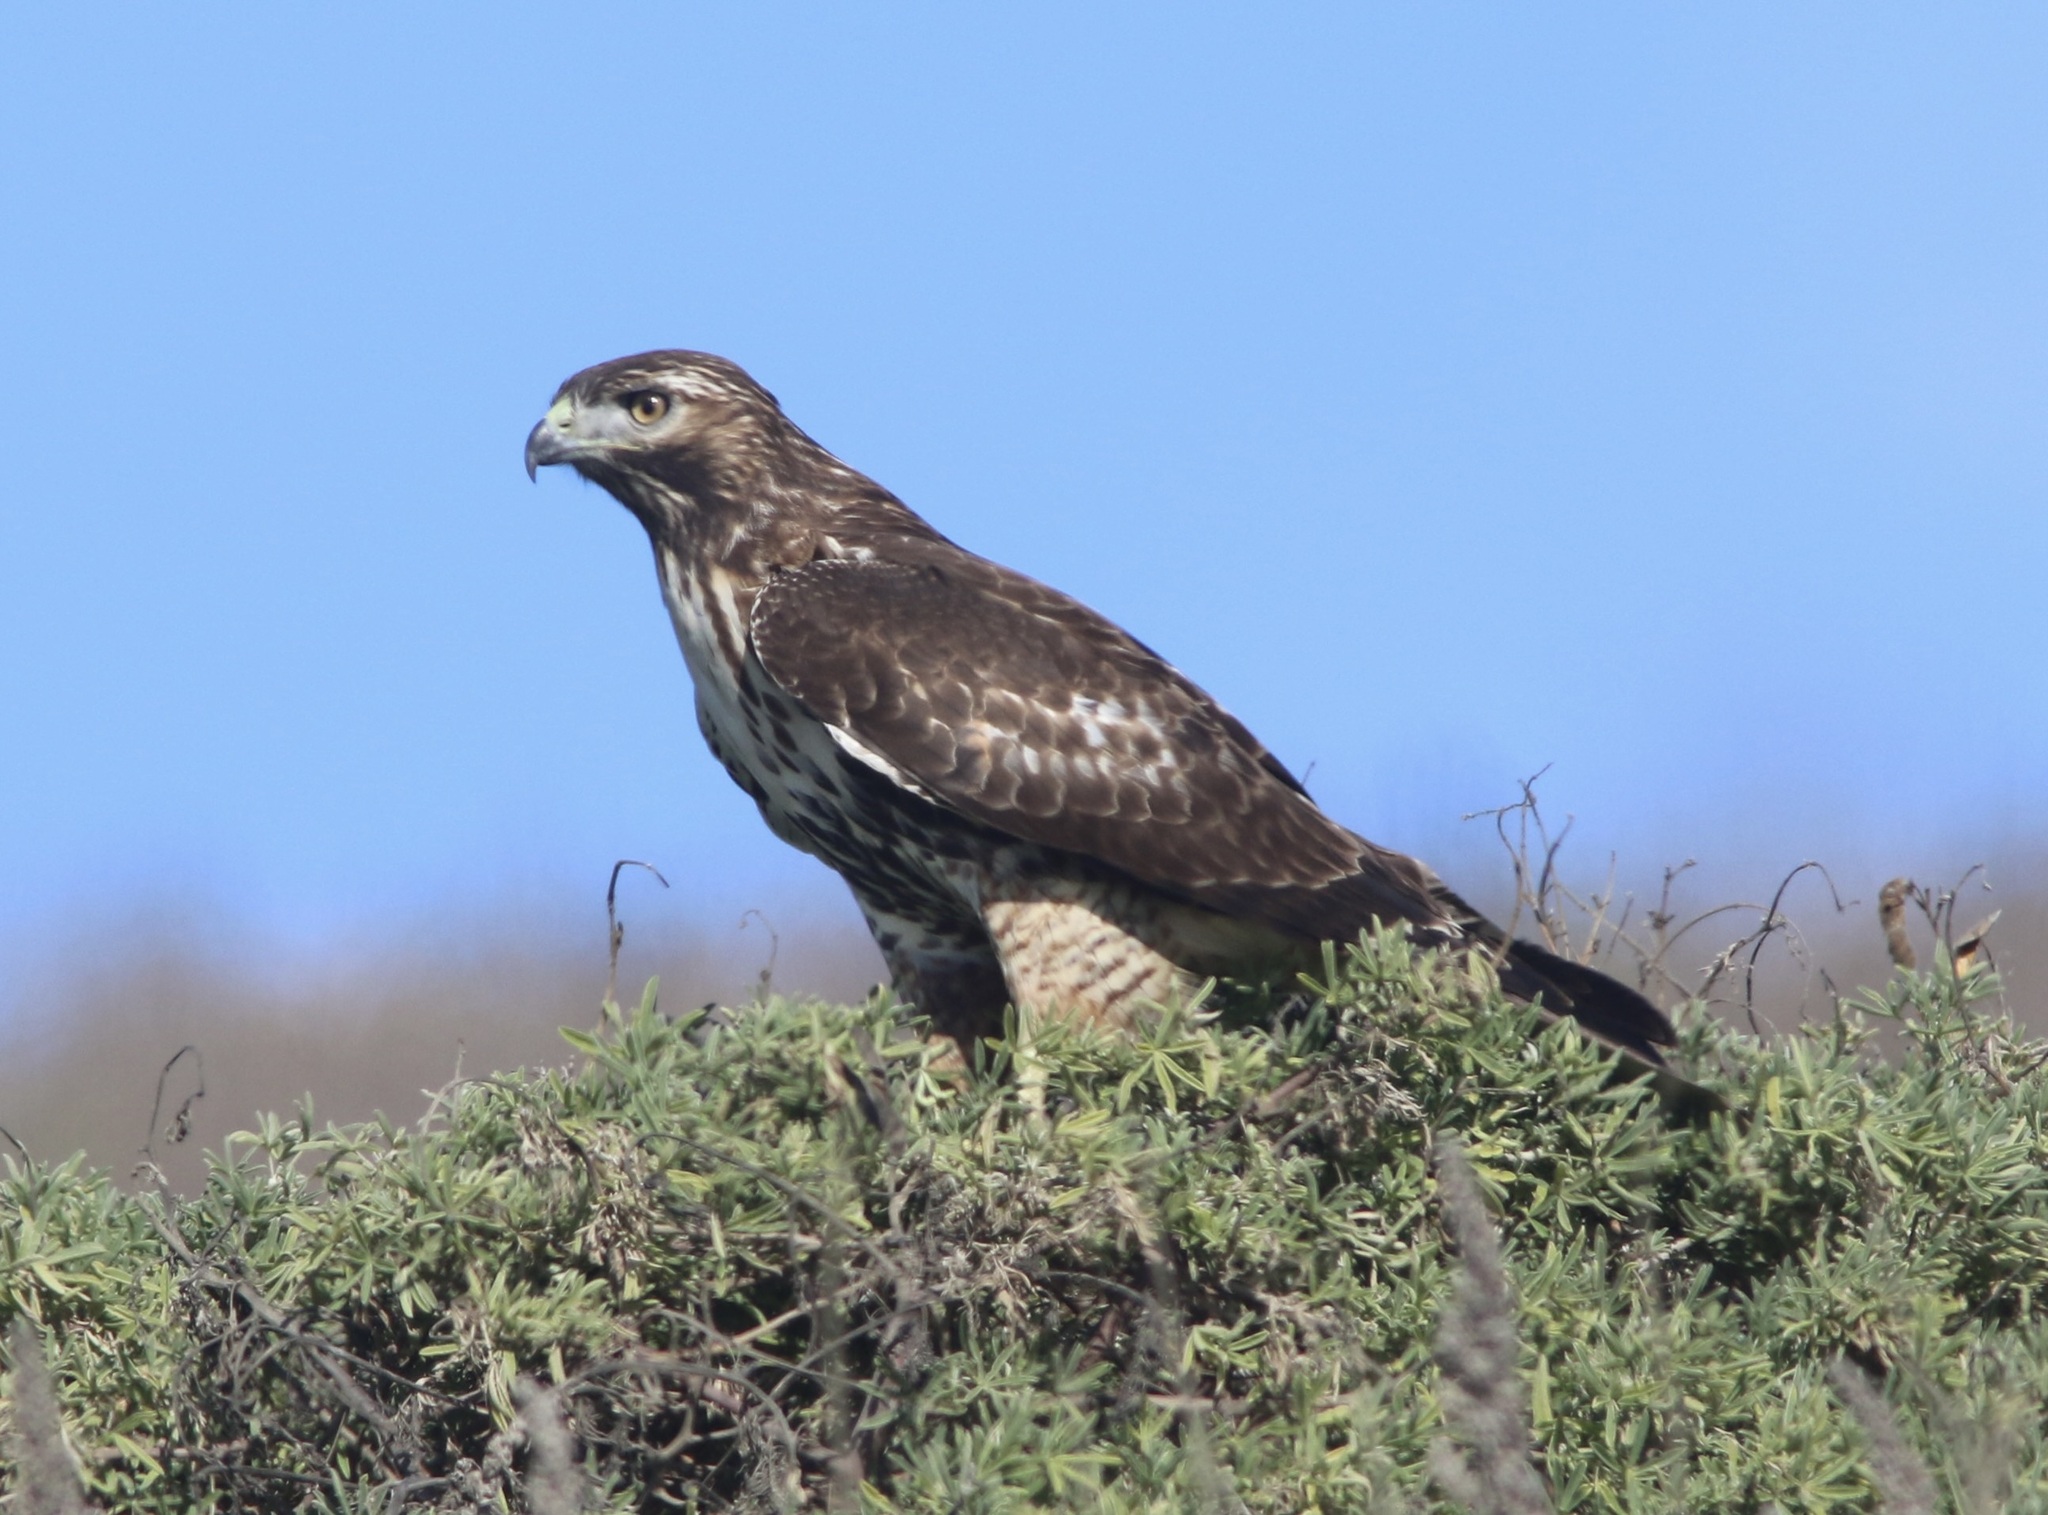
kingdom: Animalia
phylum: Chordata
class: Aves
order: Accipitriformes
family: Accipitridae
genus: Buteo
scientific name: Buteo jamaicensis
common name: Red-tailed hawk
